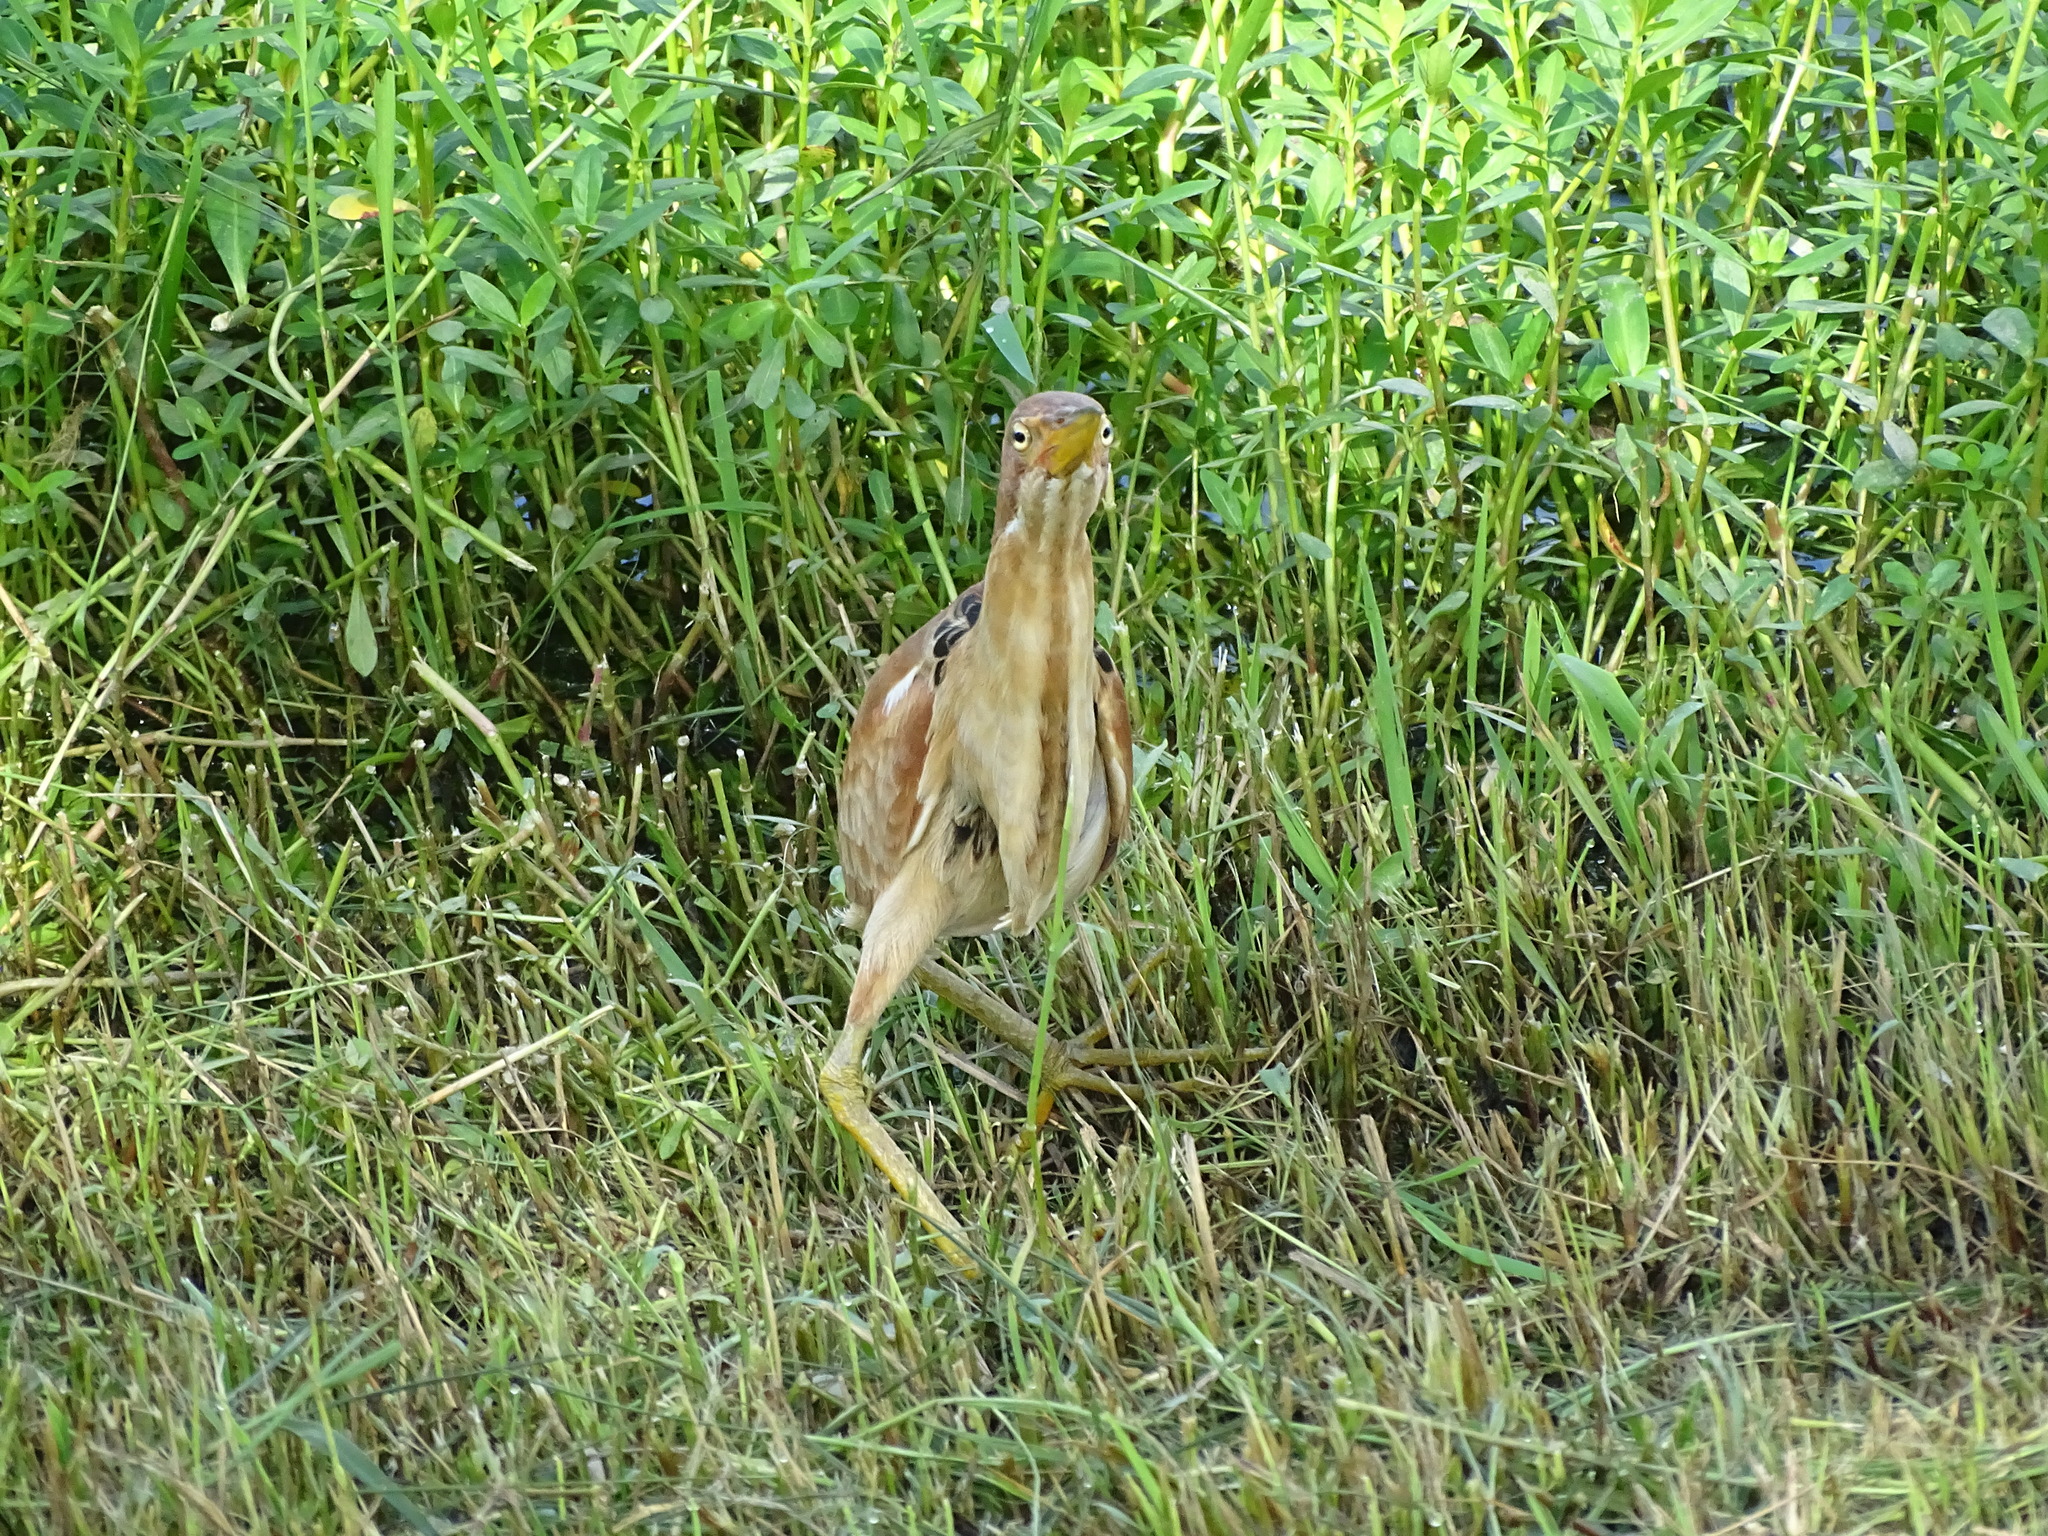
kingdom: Animalia
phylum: Chordata
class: Aves
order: Pelecaniformes
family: Ardeidae
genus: Ixobrychus
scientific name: Ixobrychus cinnamomeus
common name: Cinnamon bittern
